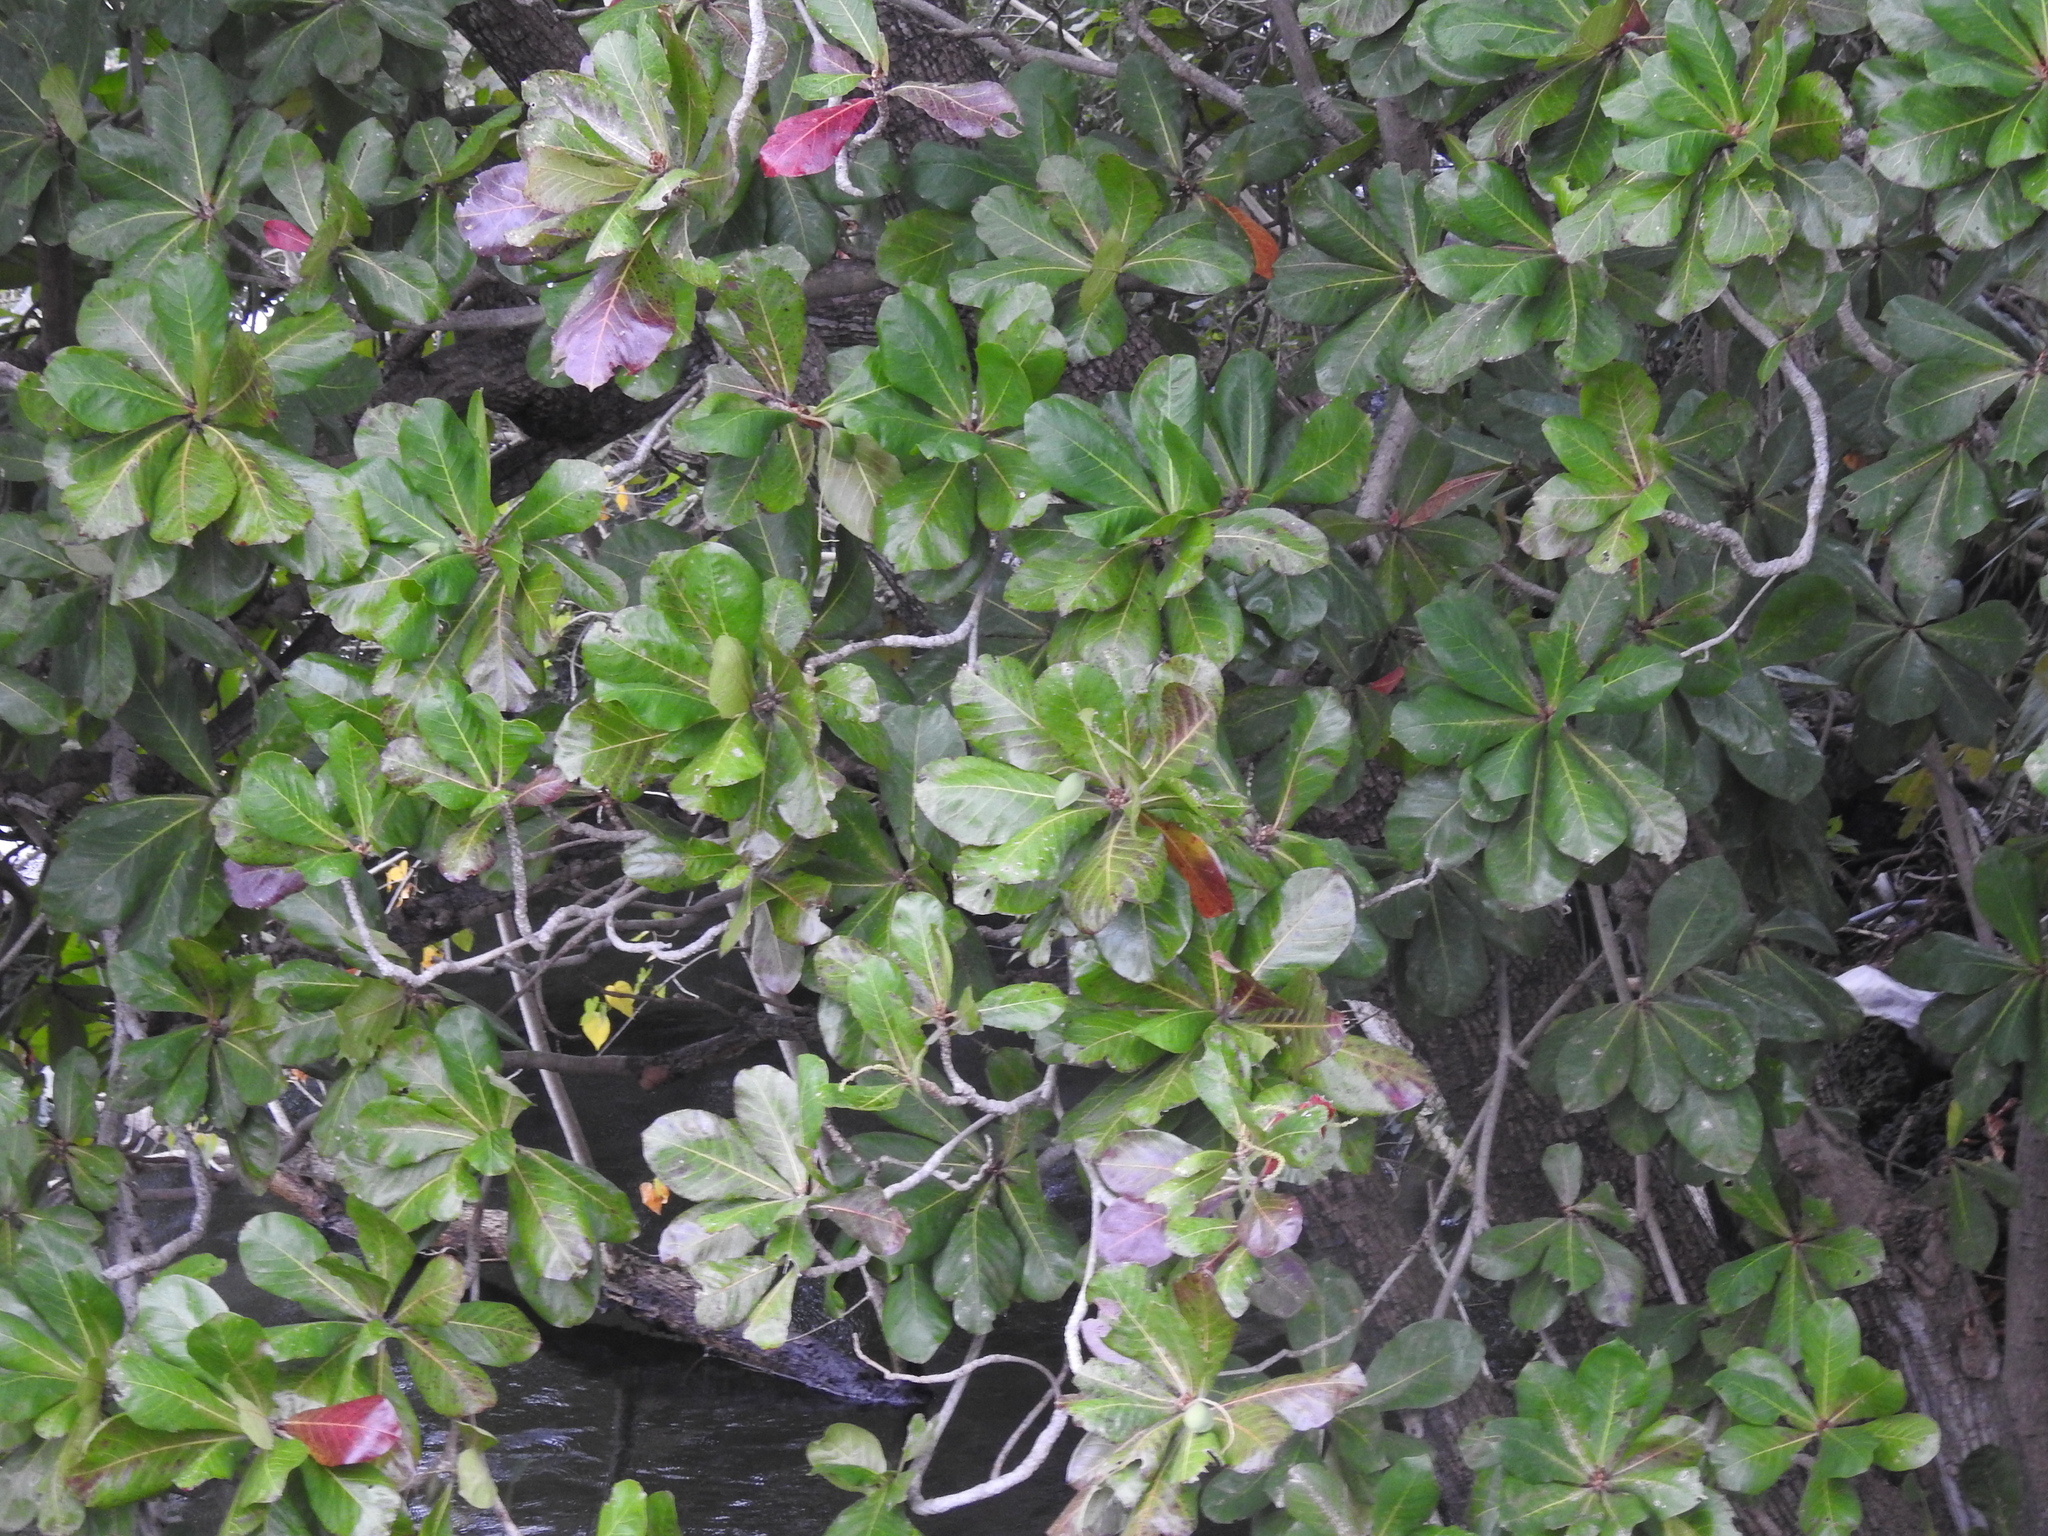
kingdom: Plantae
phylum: Tracheophyta
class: Magnoliopsida
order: Myrtales
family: Combretaceae
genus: Terminalia
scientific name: Terminalia catappa
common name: Tropical almond
